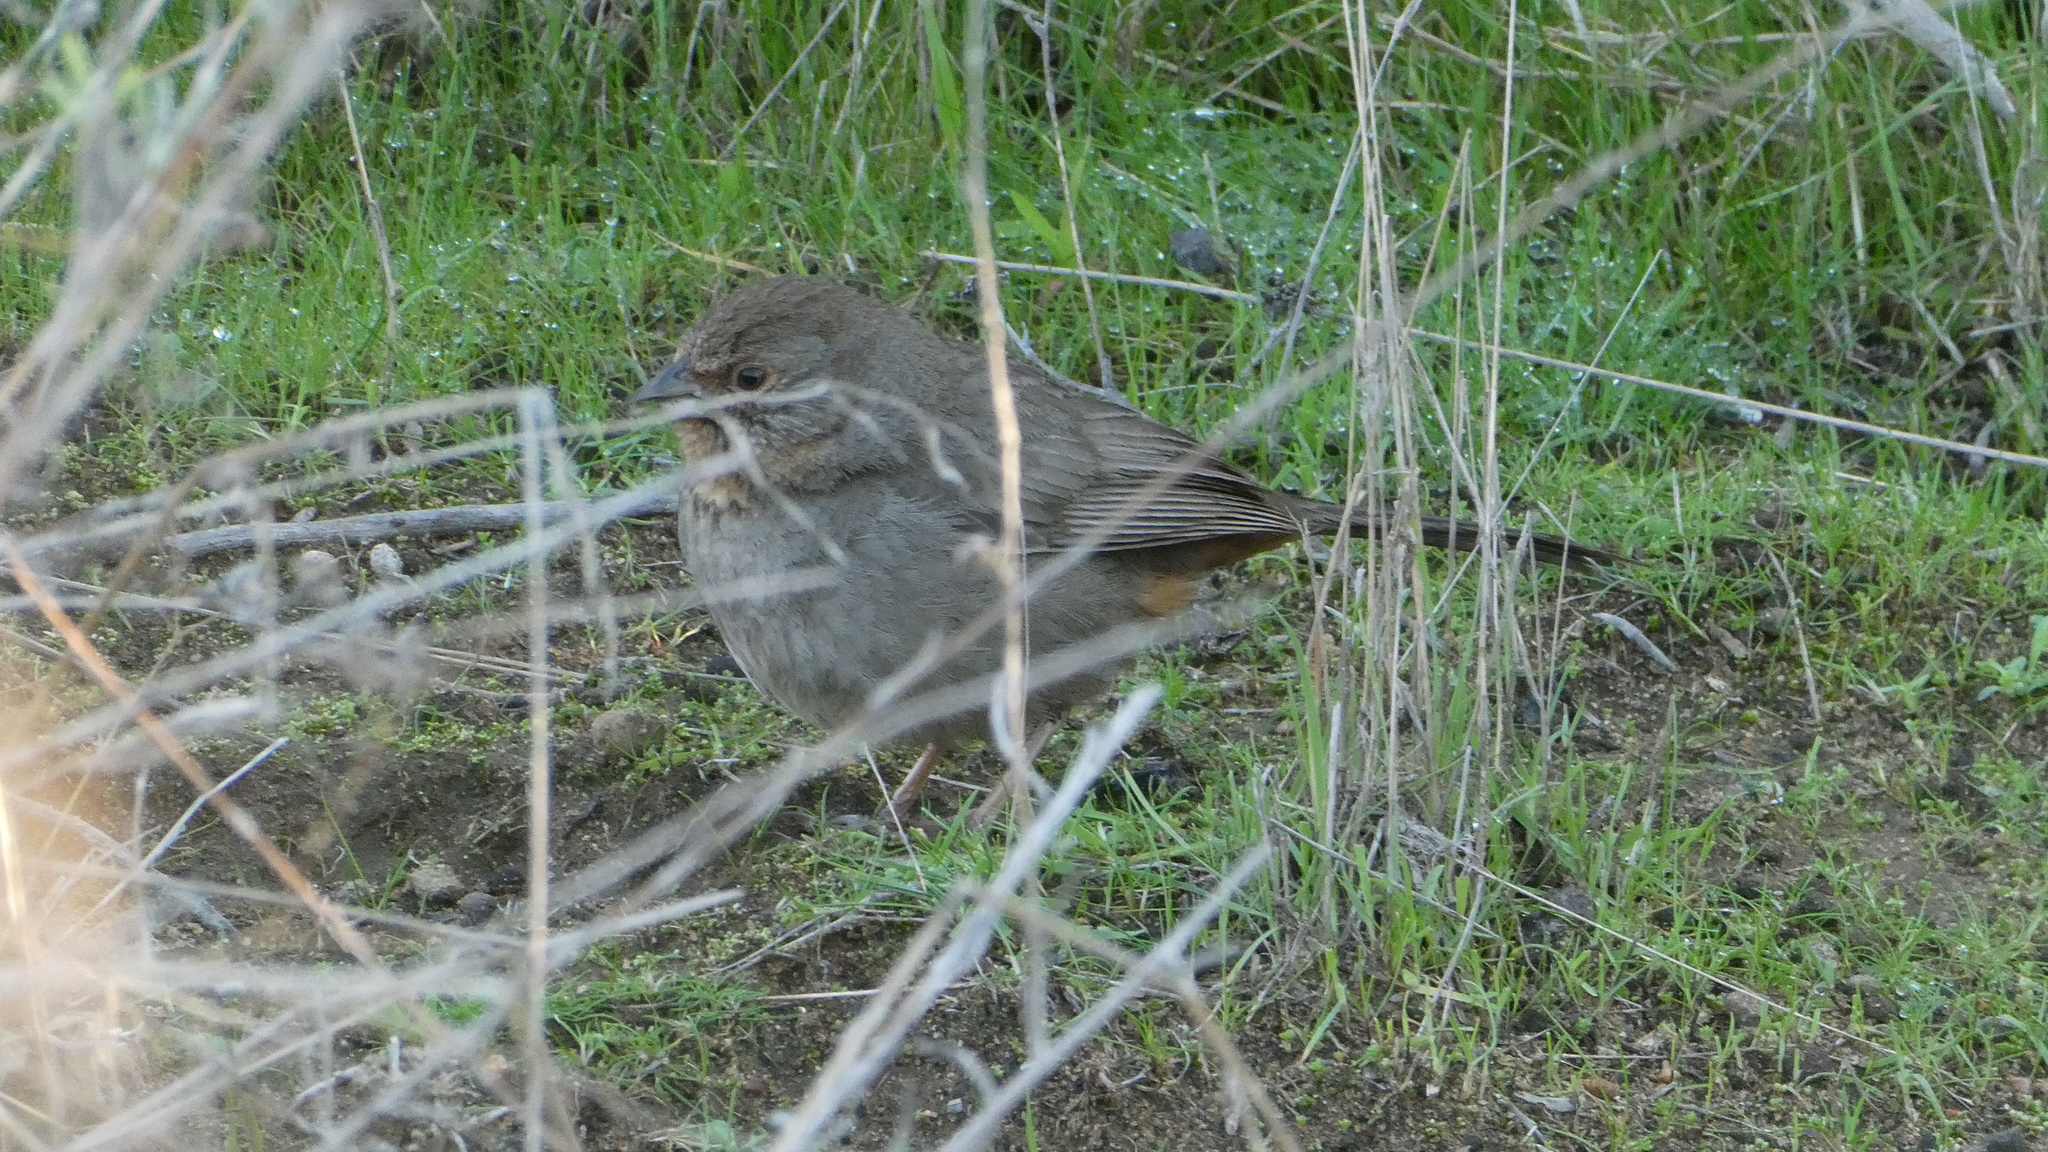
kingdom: Animalia
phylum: Chordata
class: Aves
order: Passeriformes
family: Passerellidae
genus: Melozone
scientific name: Melozone crissalis
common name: California towhee
